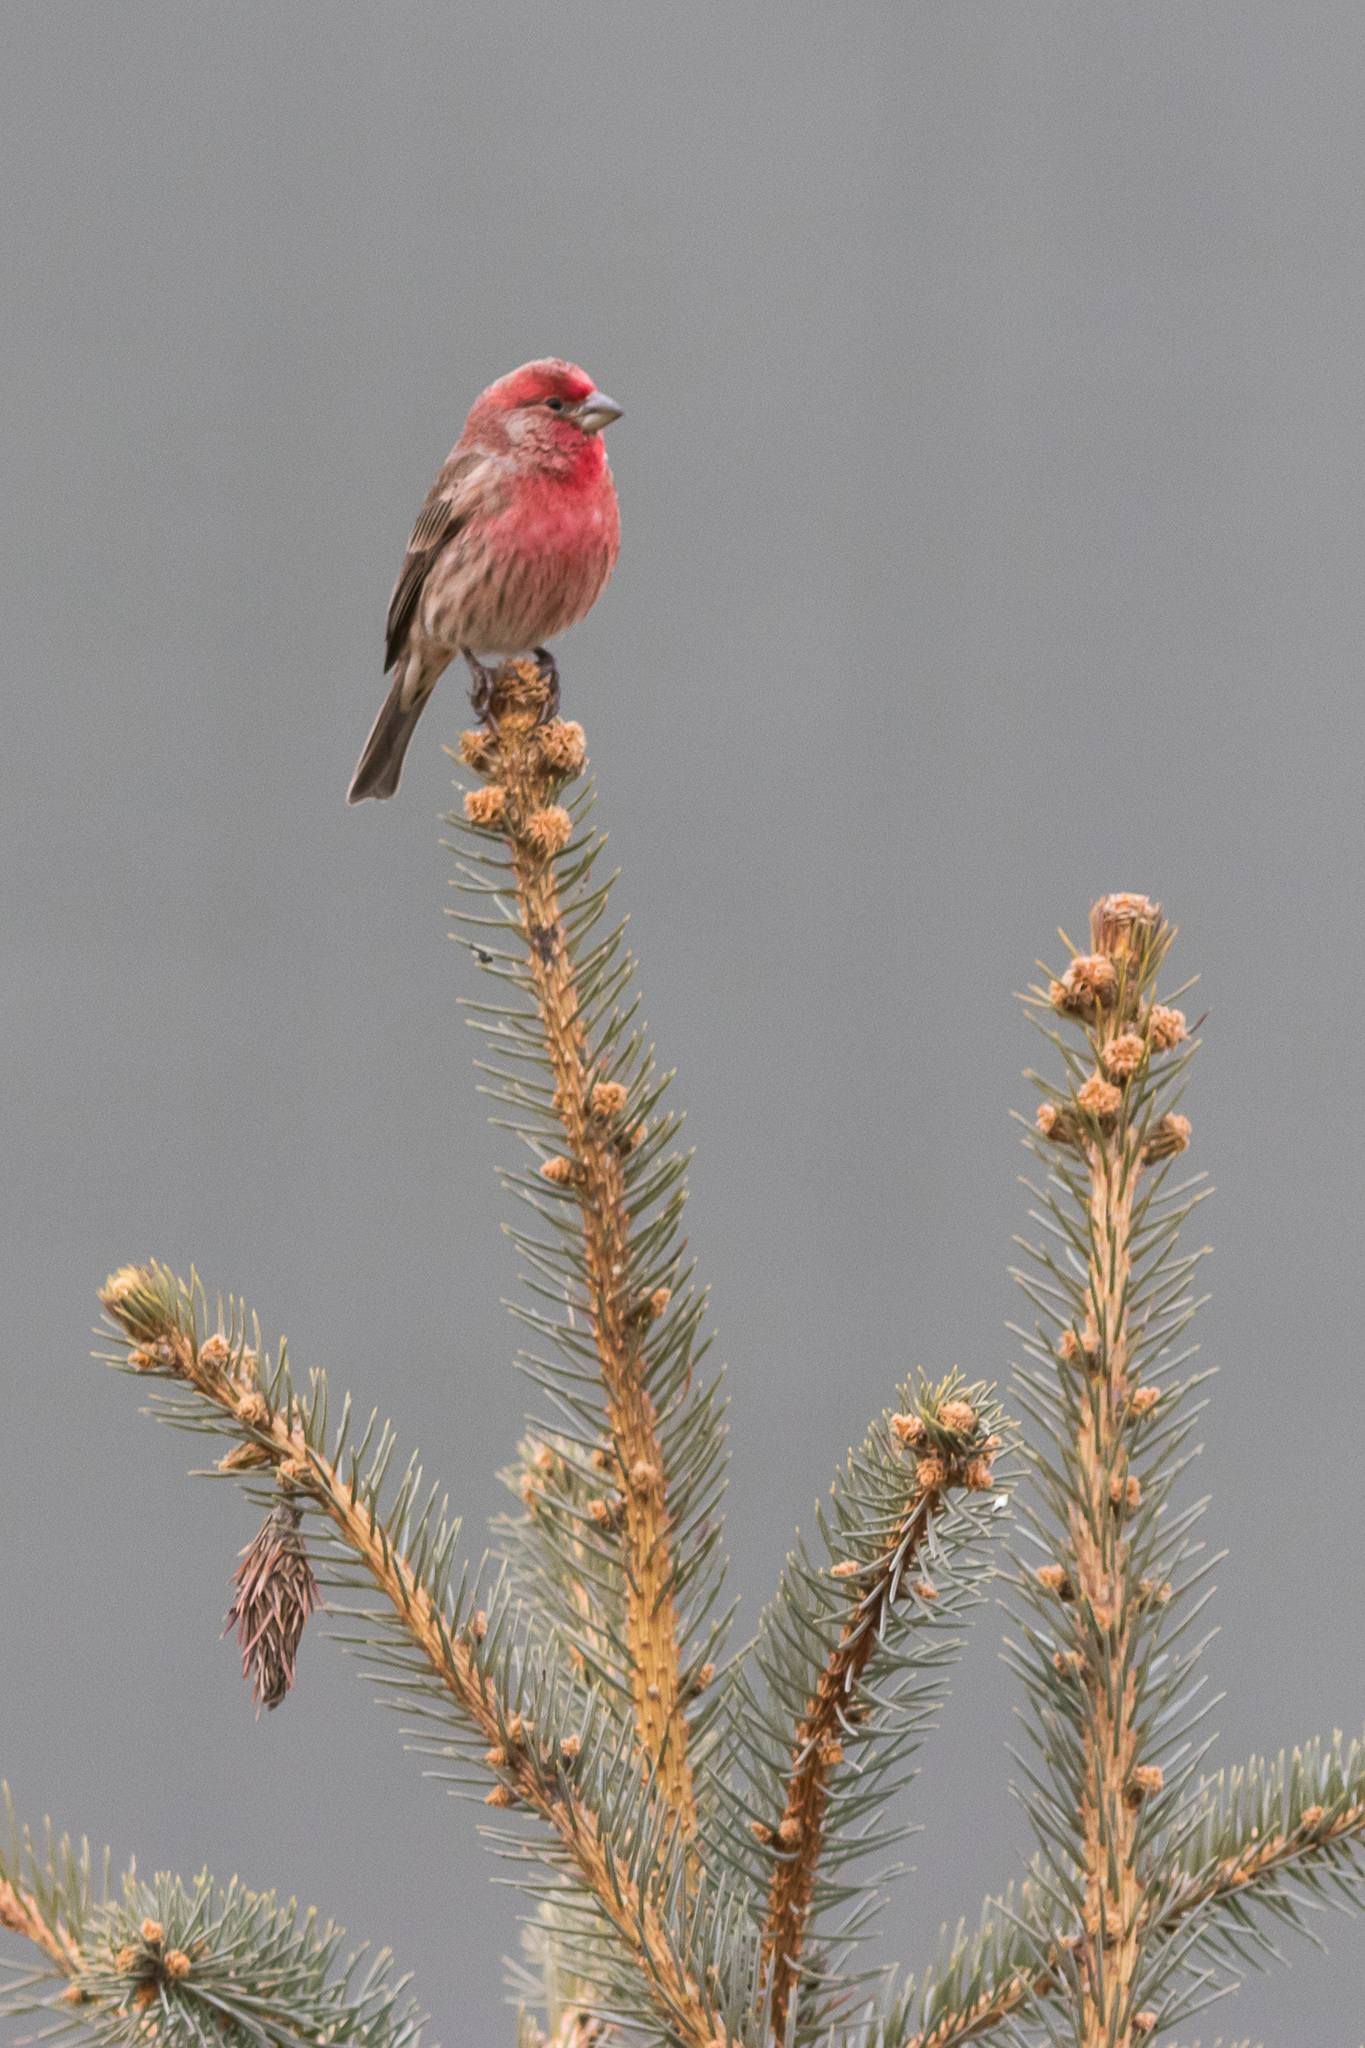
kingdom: Animalia
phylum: Chordata
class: Aves
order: Passeriformes
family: Fringillidae
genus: Haemorhous
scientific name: Haemorhous mexicanus
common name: House finch
